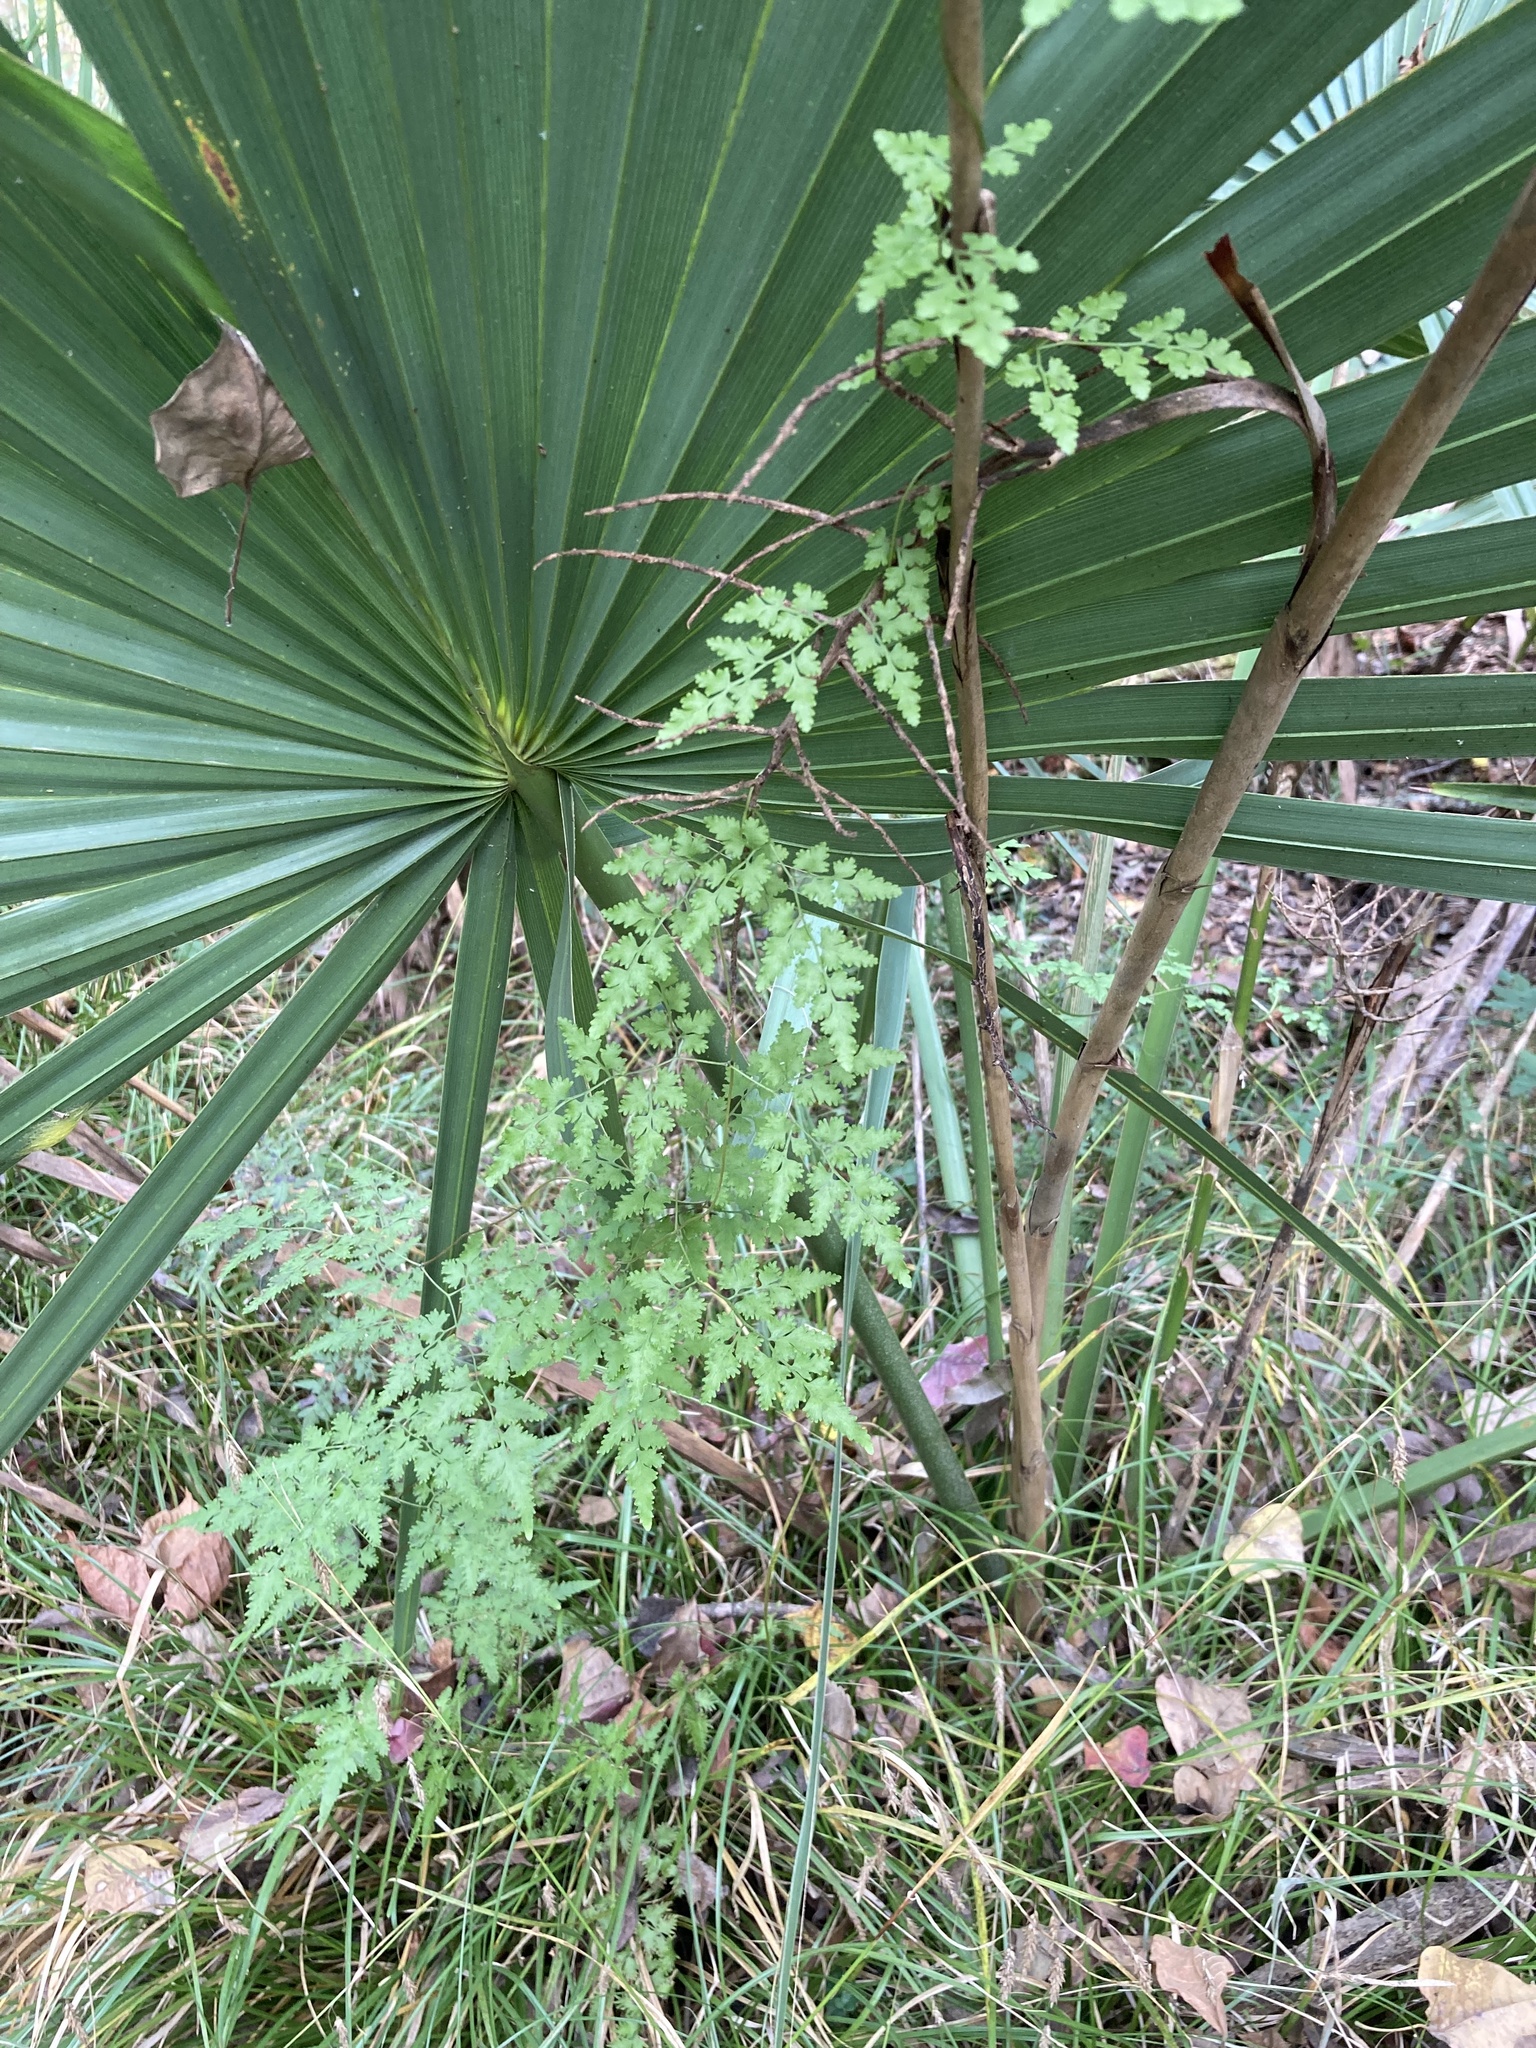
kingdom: Plantae
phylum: Tracheophyta
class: Polypodiopsida
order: Schizaeales
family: Lygodiaceae
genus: Lygodium
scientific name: Lygodium japonicum
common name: Japanese climbing fern
